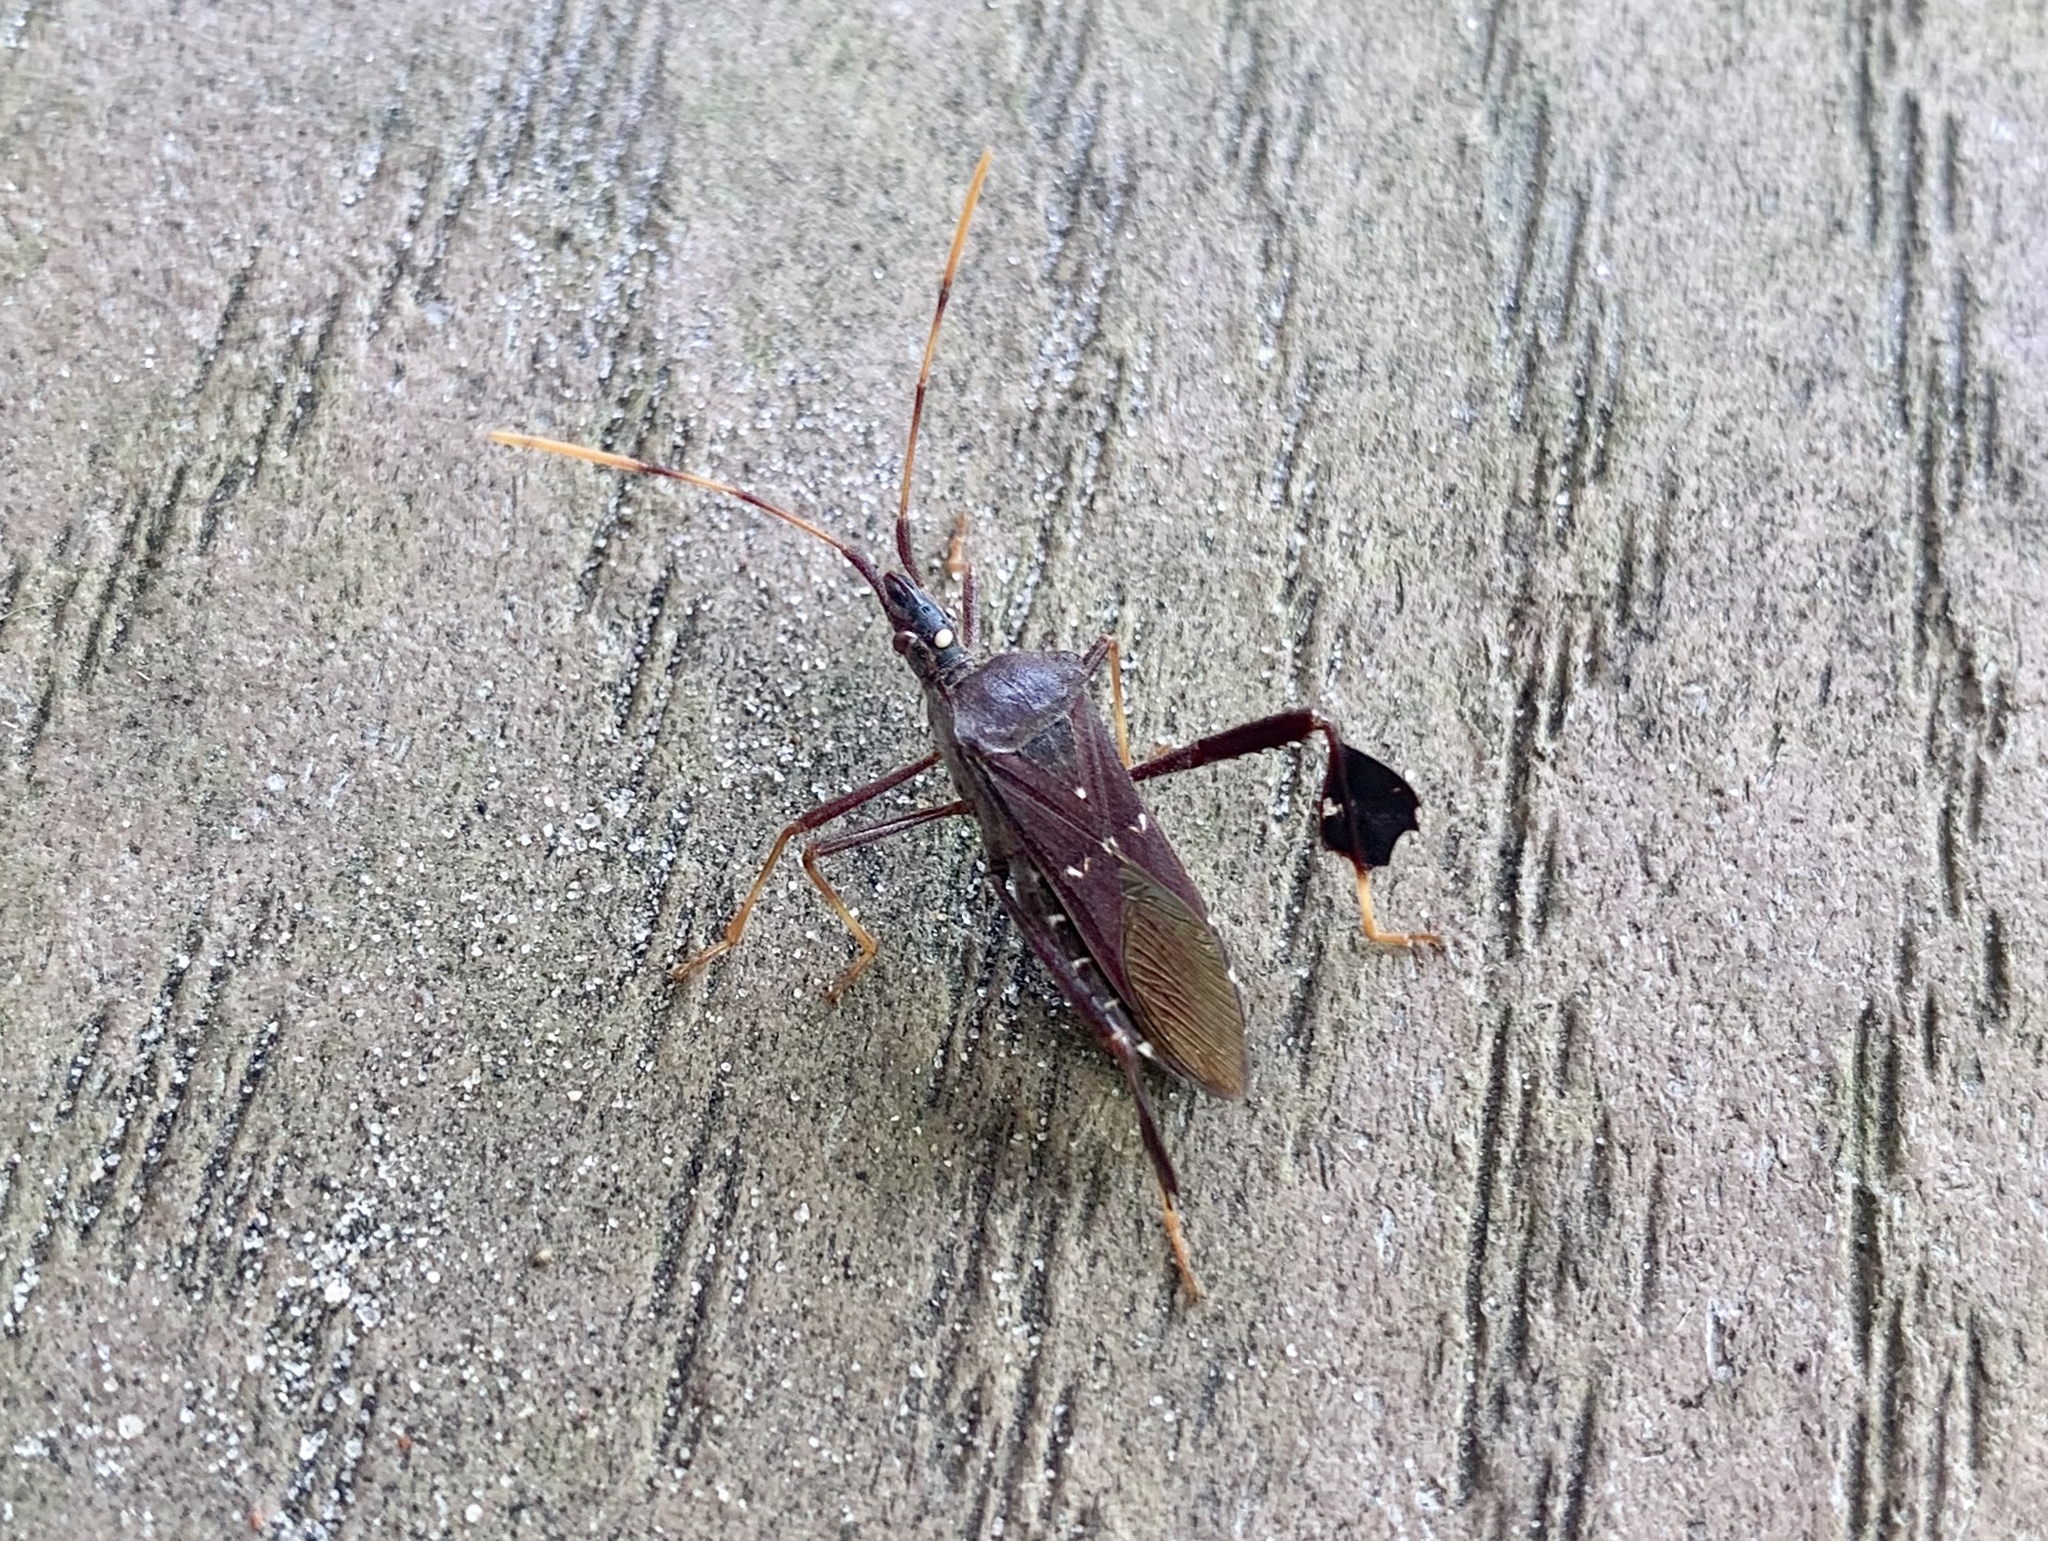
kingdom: Animalia
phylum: Arthropoda
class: Insecta
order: Hemiptera
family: Coreidae
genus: Leptoglossus
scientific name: Leptoglossus oppositus
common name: Northern leaf-footed bug
